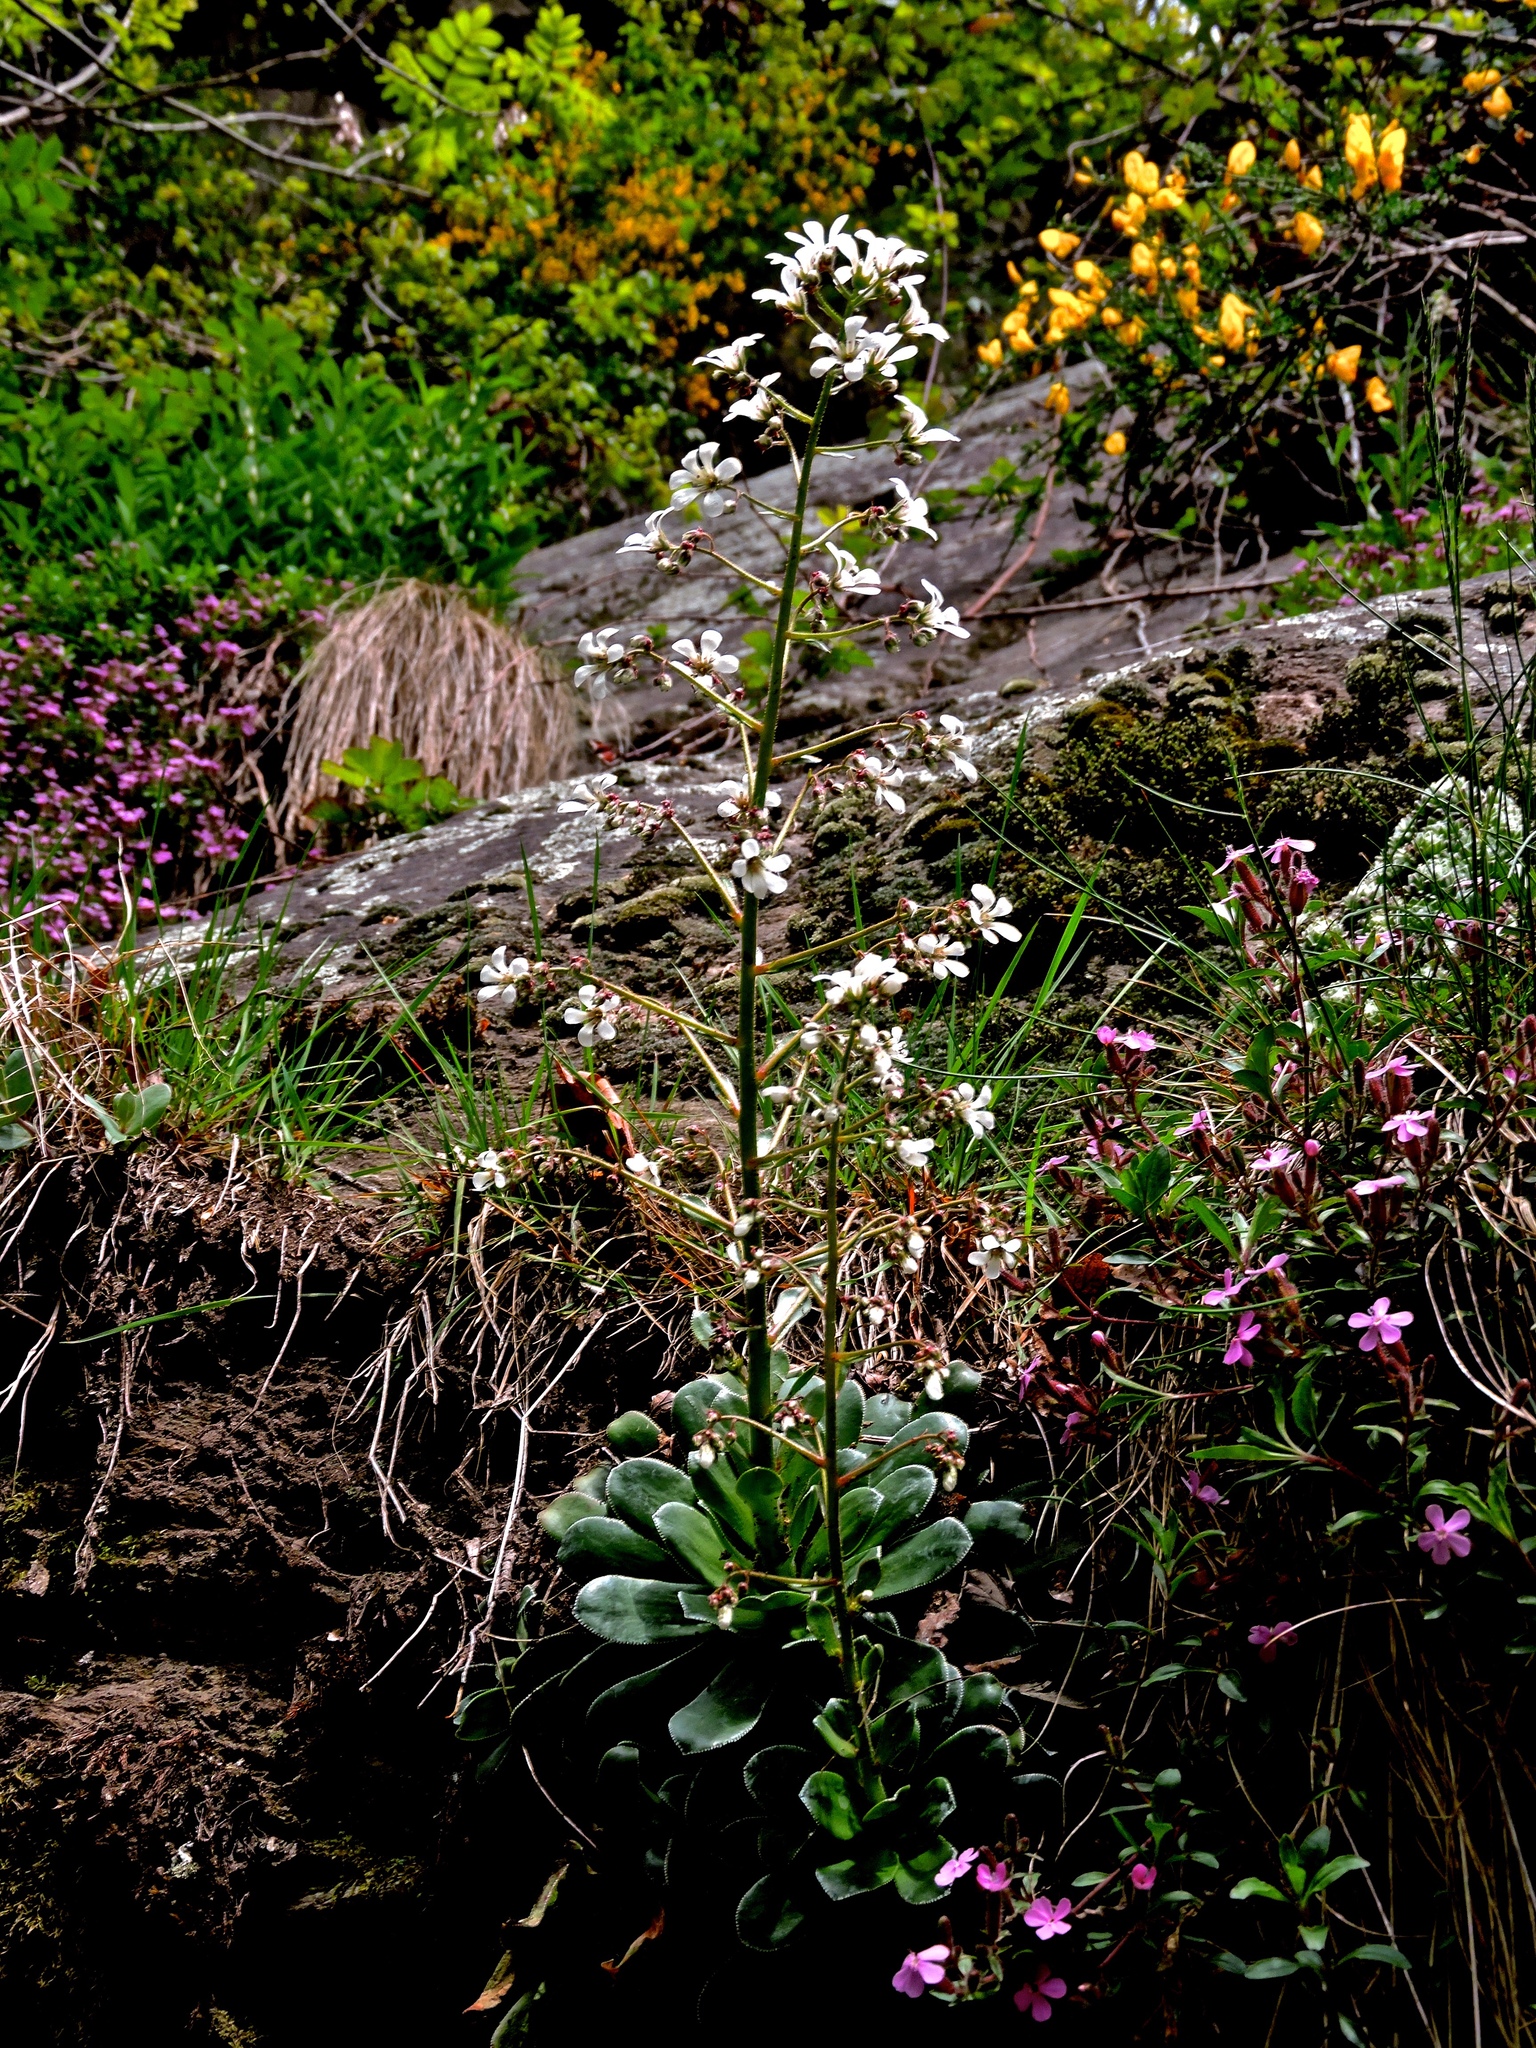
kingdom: Plantae
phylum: Tracheophyta
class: Magnoliopsida
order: Saxifragales
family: Saxifragaceae
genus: Saxifraga
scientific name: Saxifraga cotyledon
